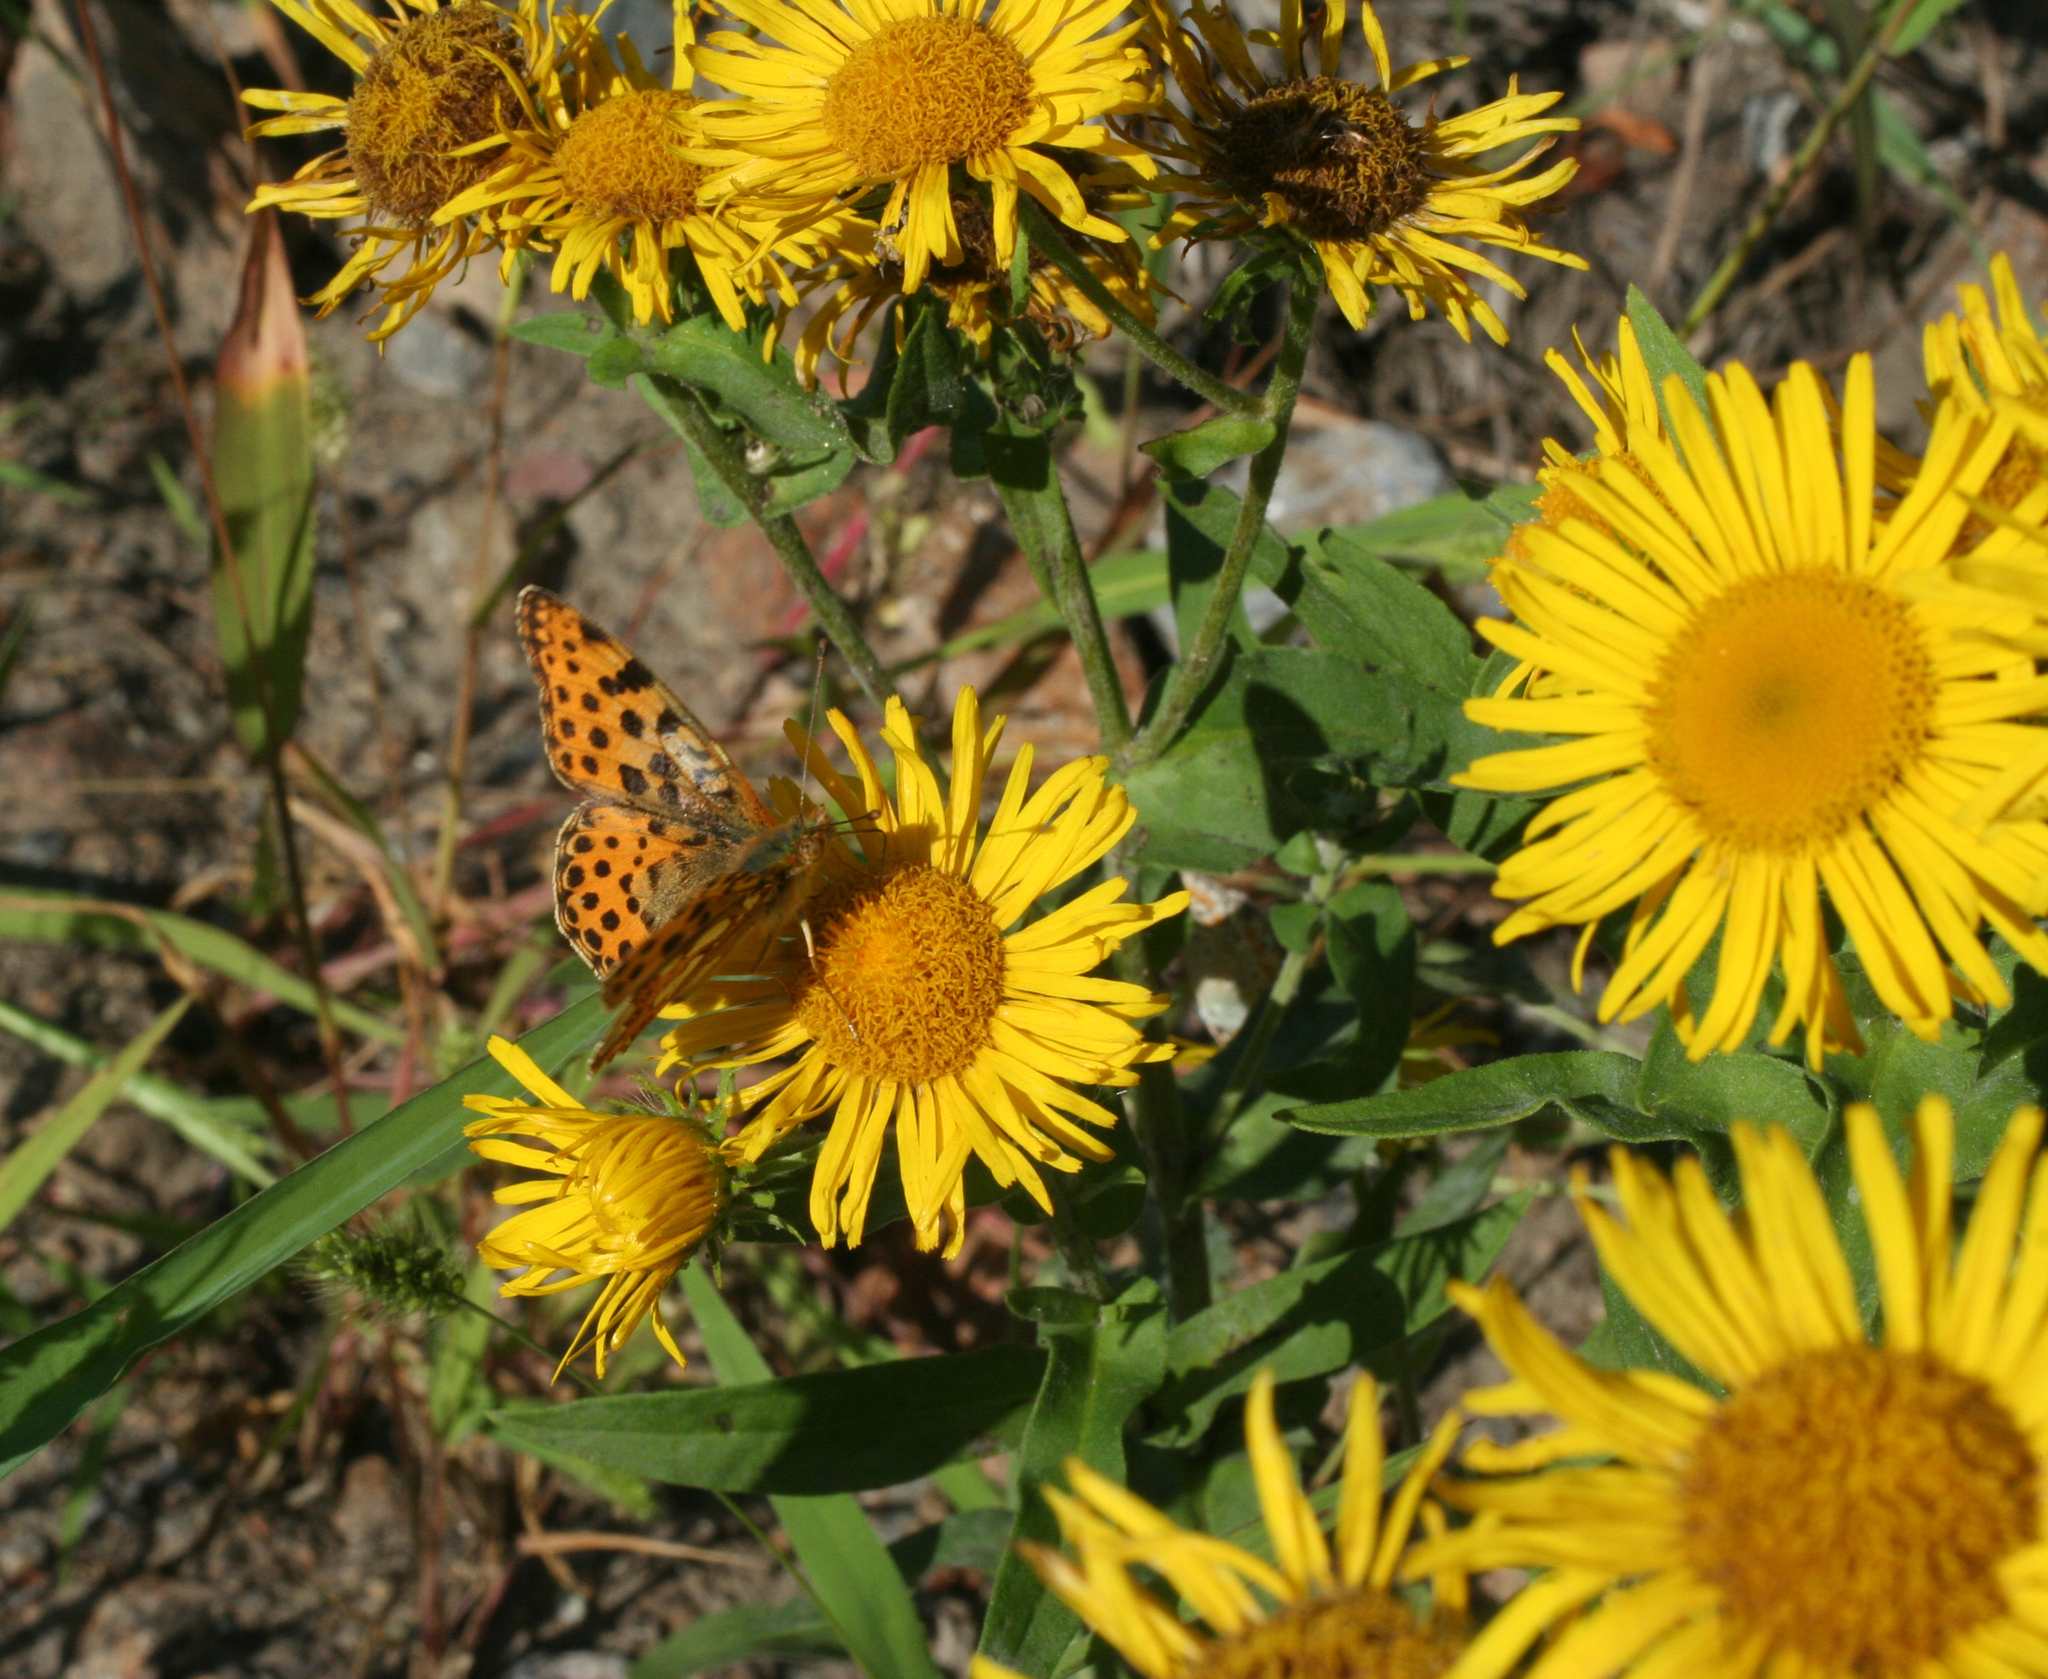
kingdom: Animalia
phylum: Arthropoda
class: Insecta
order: Lepidoptera
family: Nymphalidae
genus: Issoria
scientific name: Issoria lathonia
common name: Queen of spain fritillary
